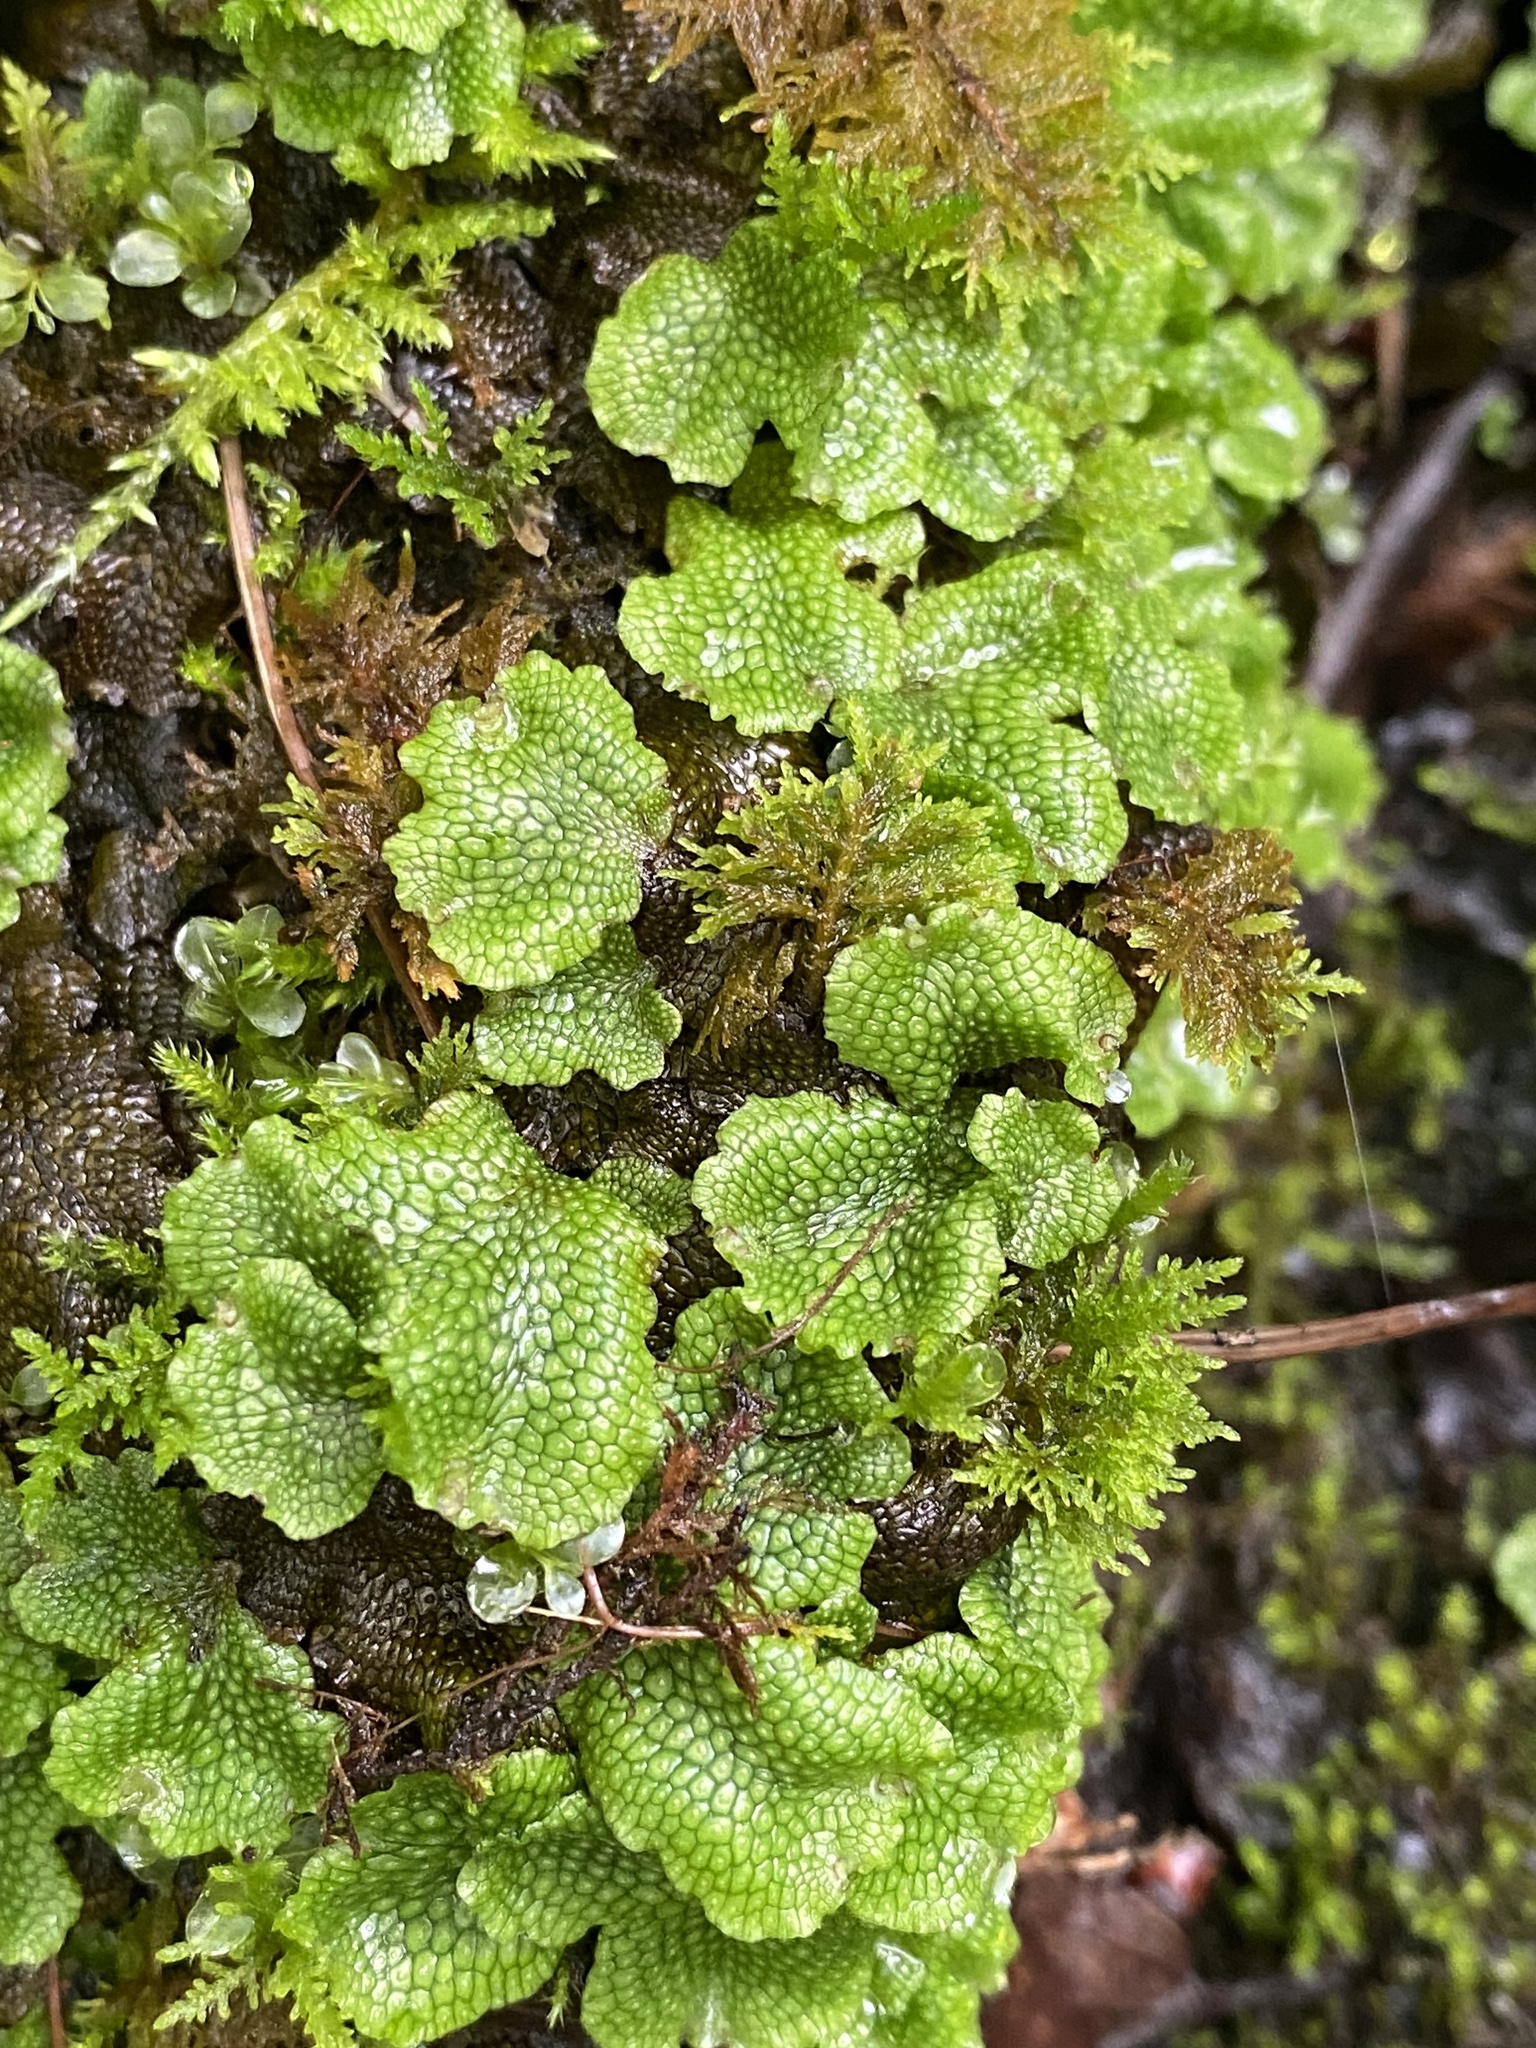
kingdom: Plantae
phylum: Marchantiophyta
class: Marchantiopsida
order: Marchantiales
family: Conocephalaceae
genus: Conocephalum
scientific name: Conocephalum salebrosum
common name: Cat-tongue liverwort
